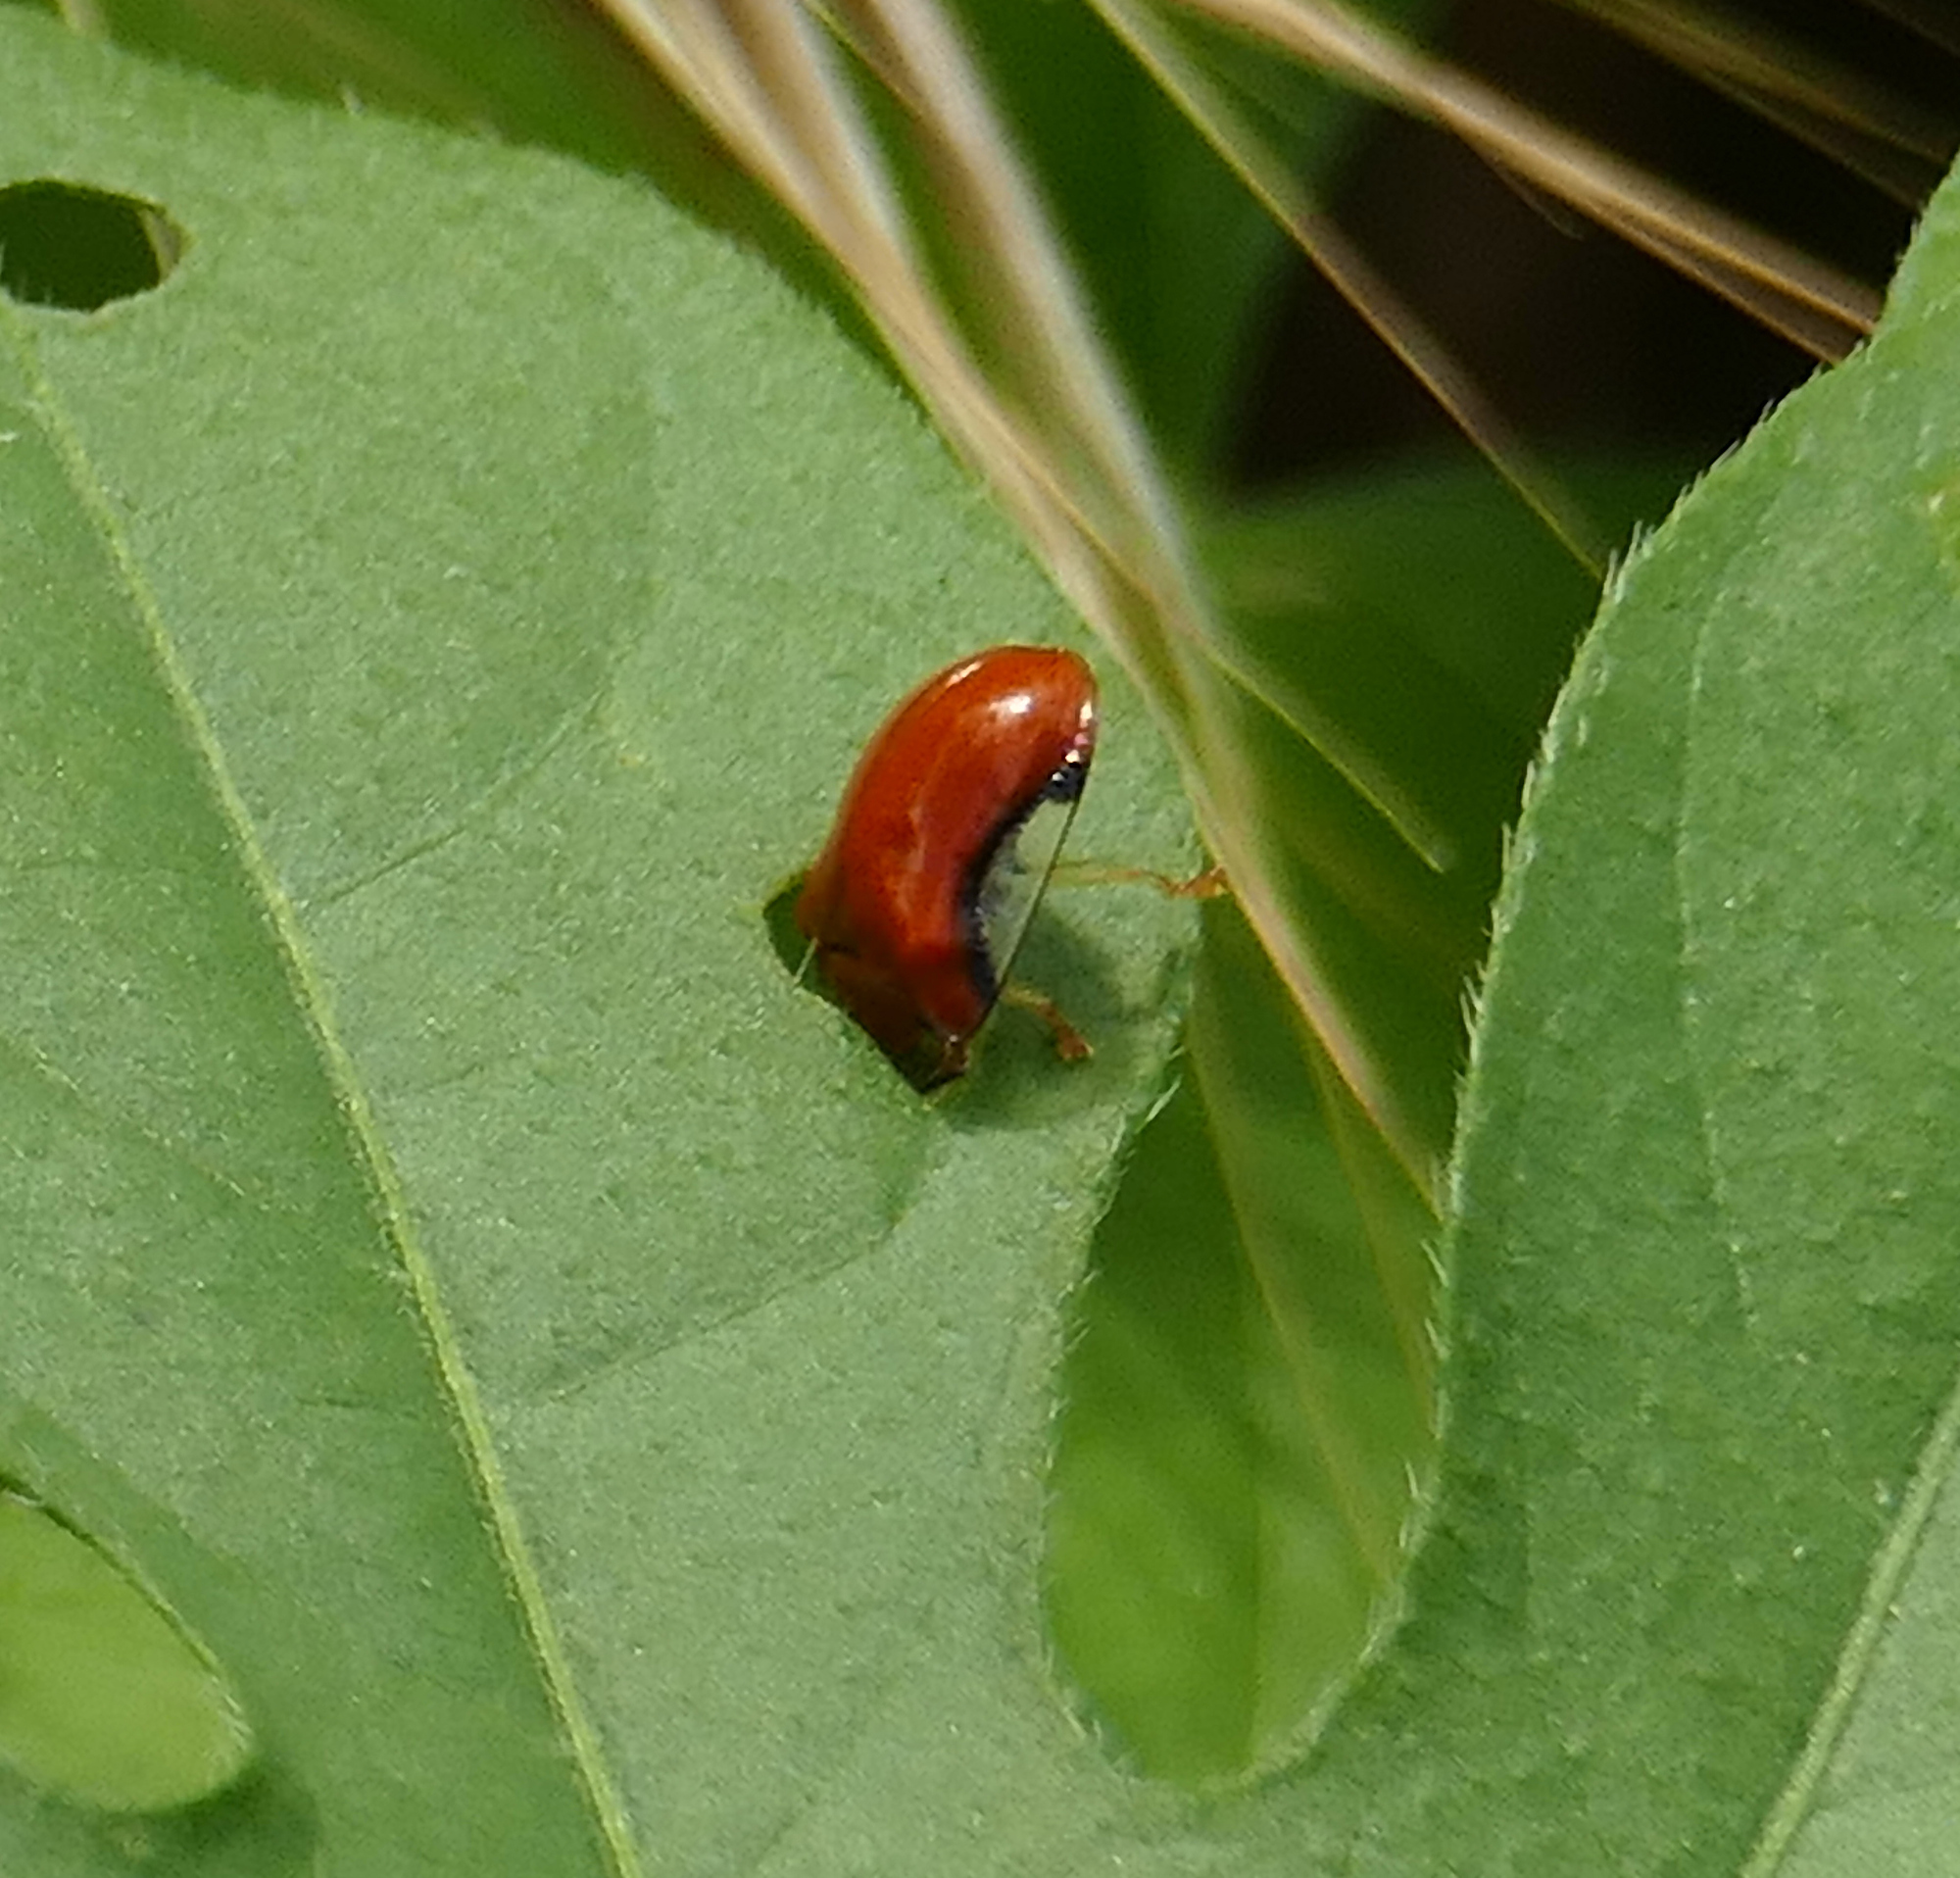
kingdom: Animalia
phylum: Arthropoda
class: Insecta
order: Coleoptera
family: Chrysomelidae
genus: Charidotella
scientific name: Charidotella emarginata
